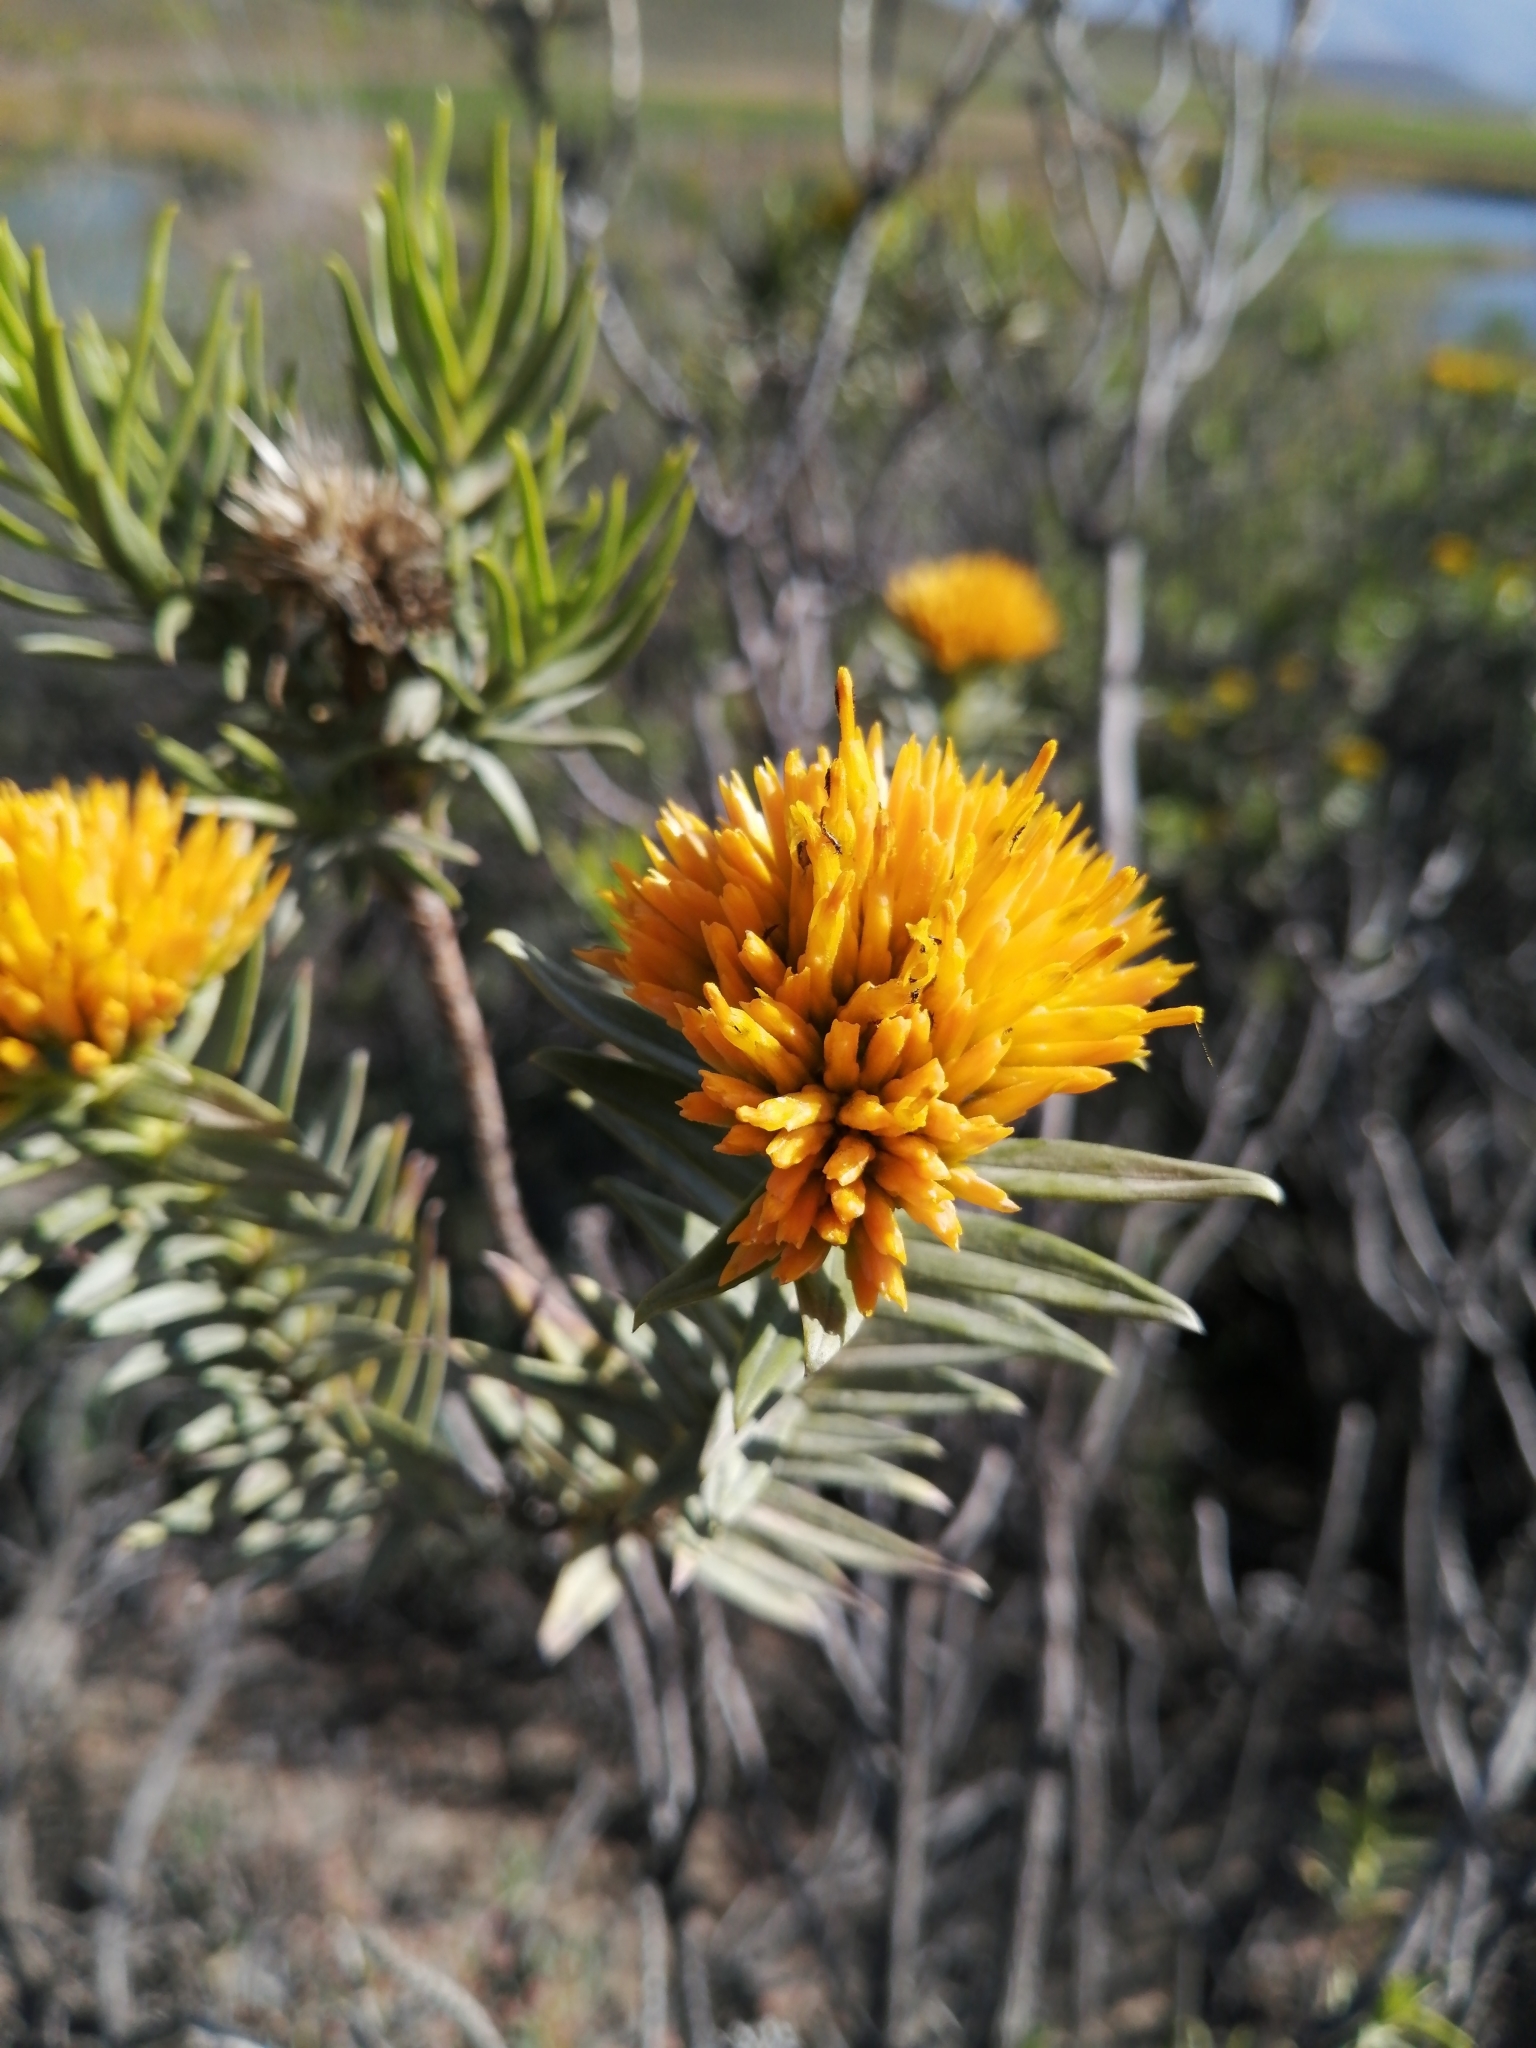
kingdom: Plantae
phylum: Tracheophyta
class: Magnoliopsida
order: Asterales
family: Asteraceae
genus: Pteronia
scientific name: Pteronia fasciculata
